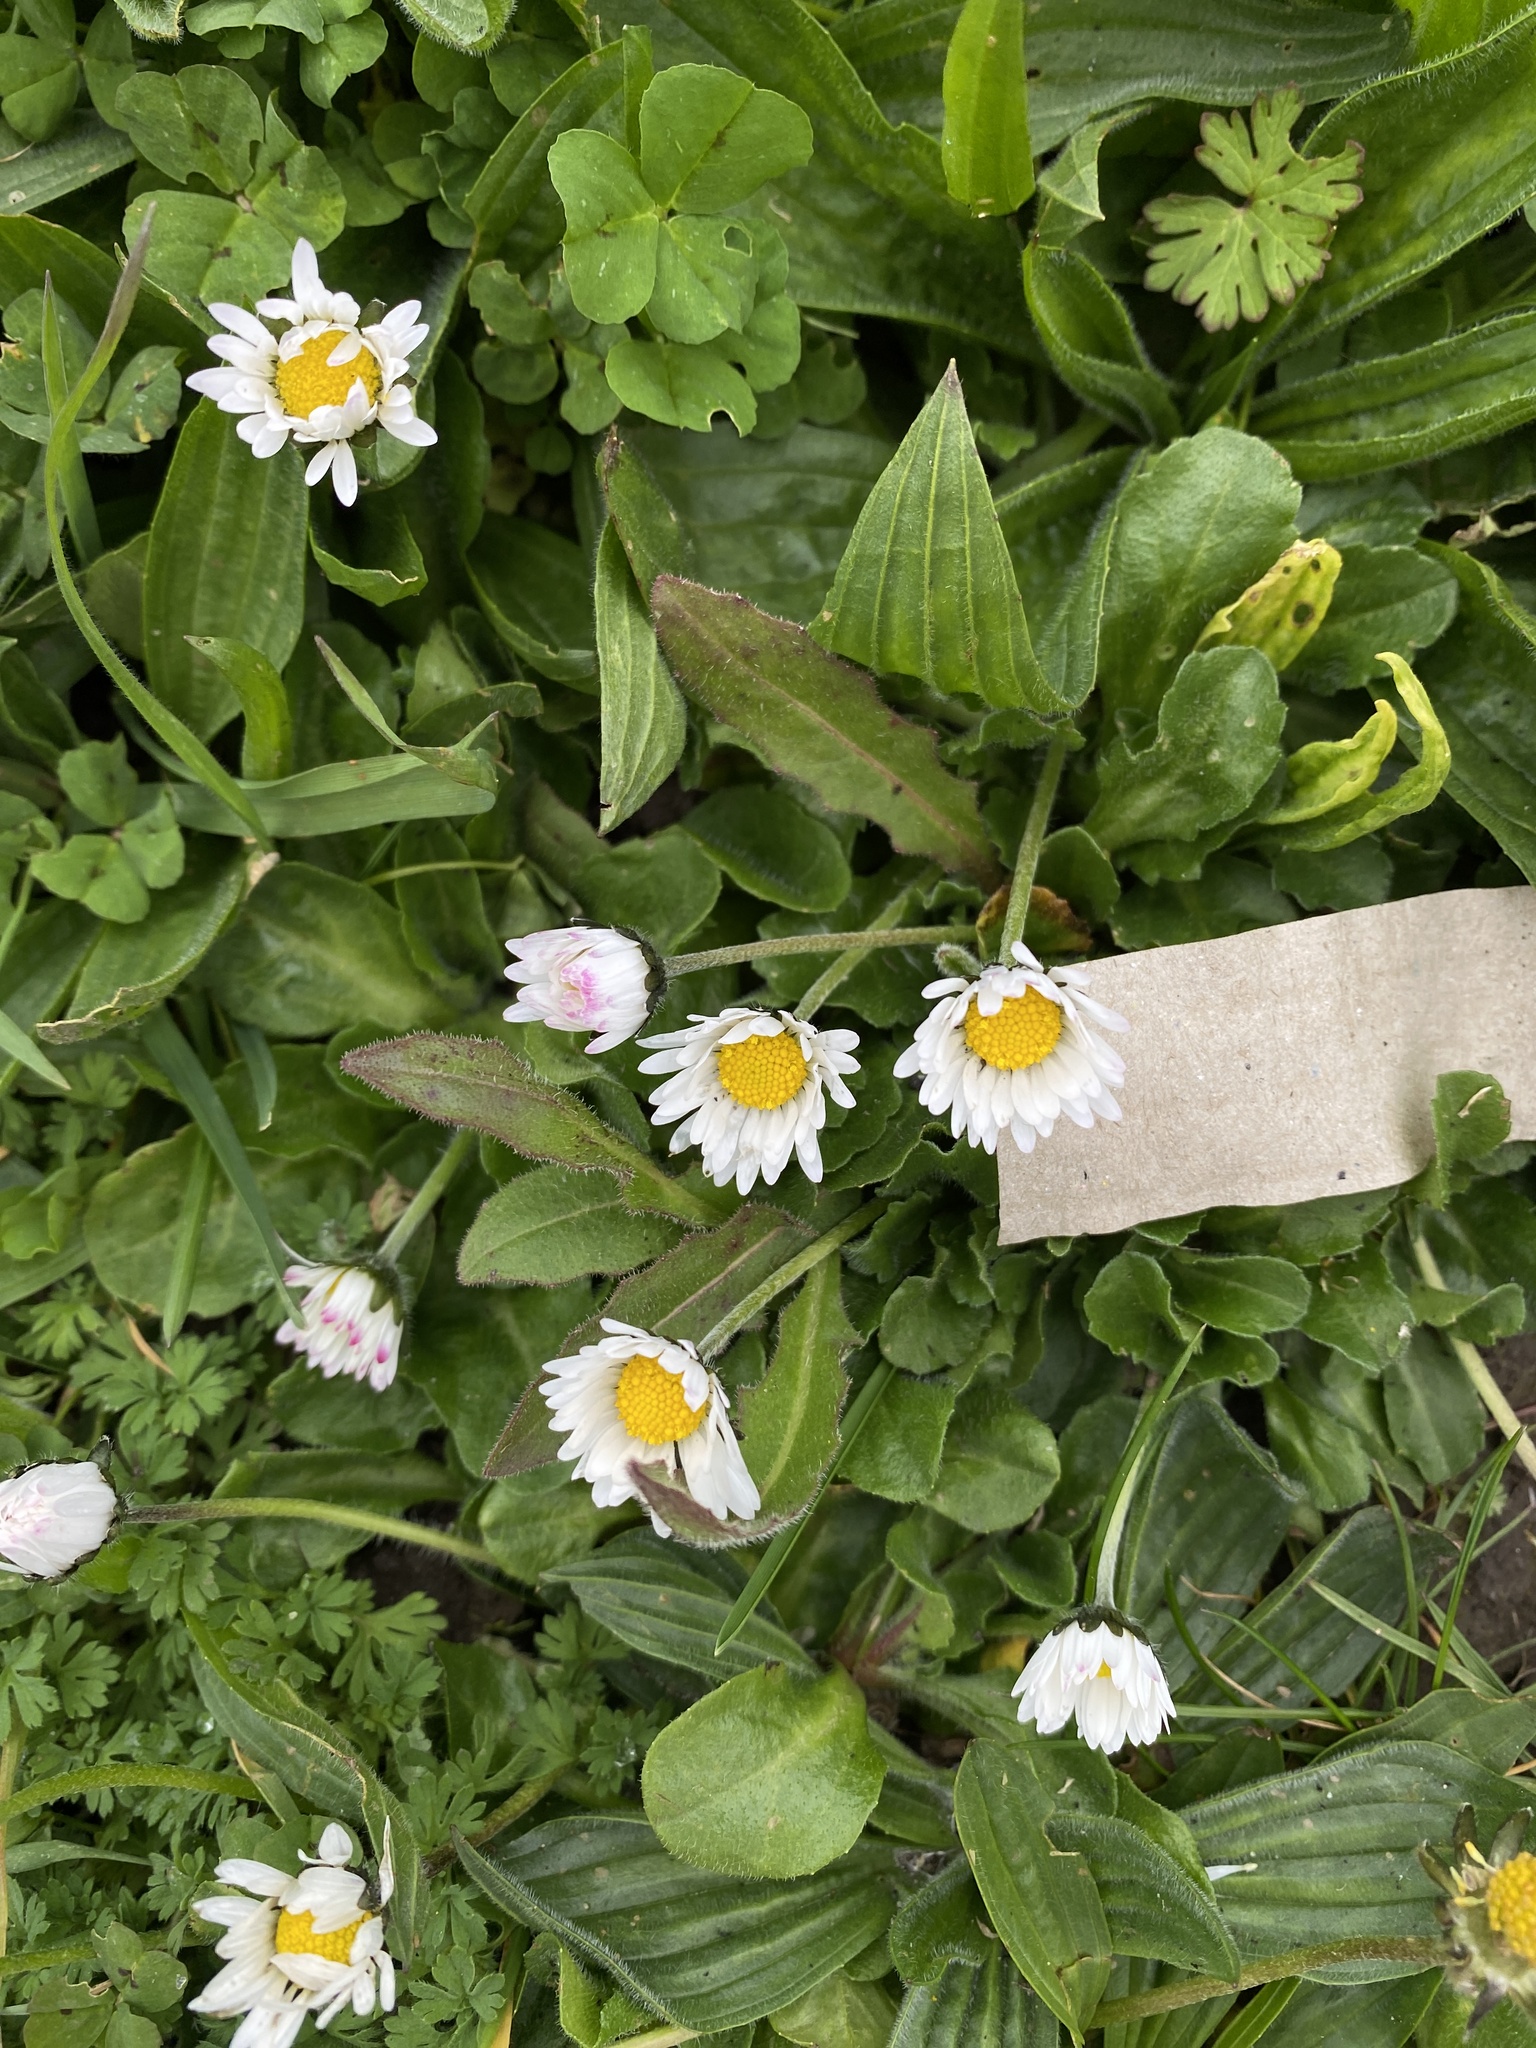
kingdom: Plantae
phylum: Tracheophyta
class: Magnoliopsida
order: Asterales
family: Asteraceae
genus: Bellis
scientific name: Bellis perennis
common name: Lawndaisy
